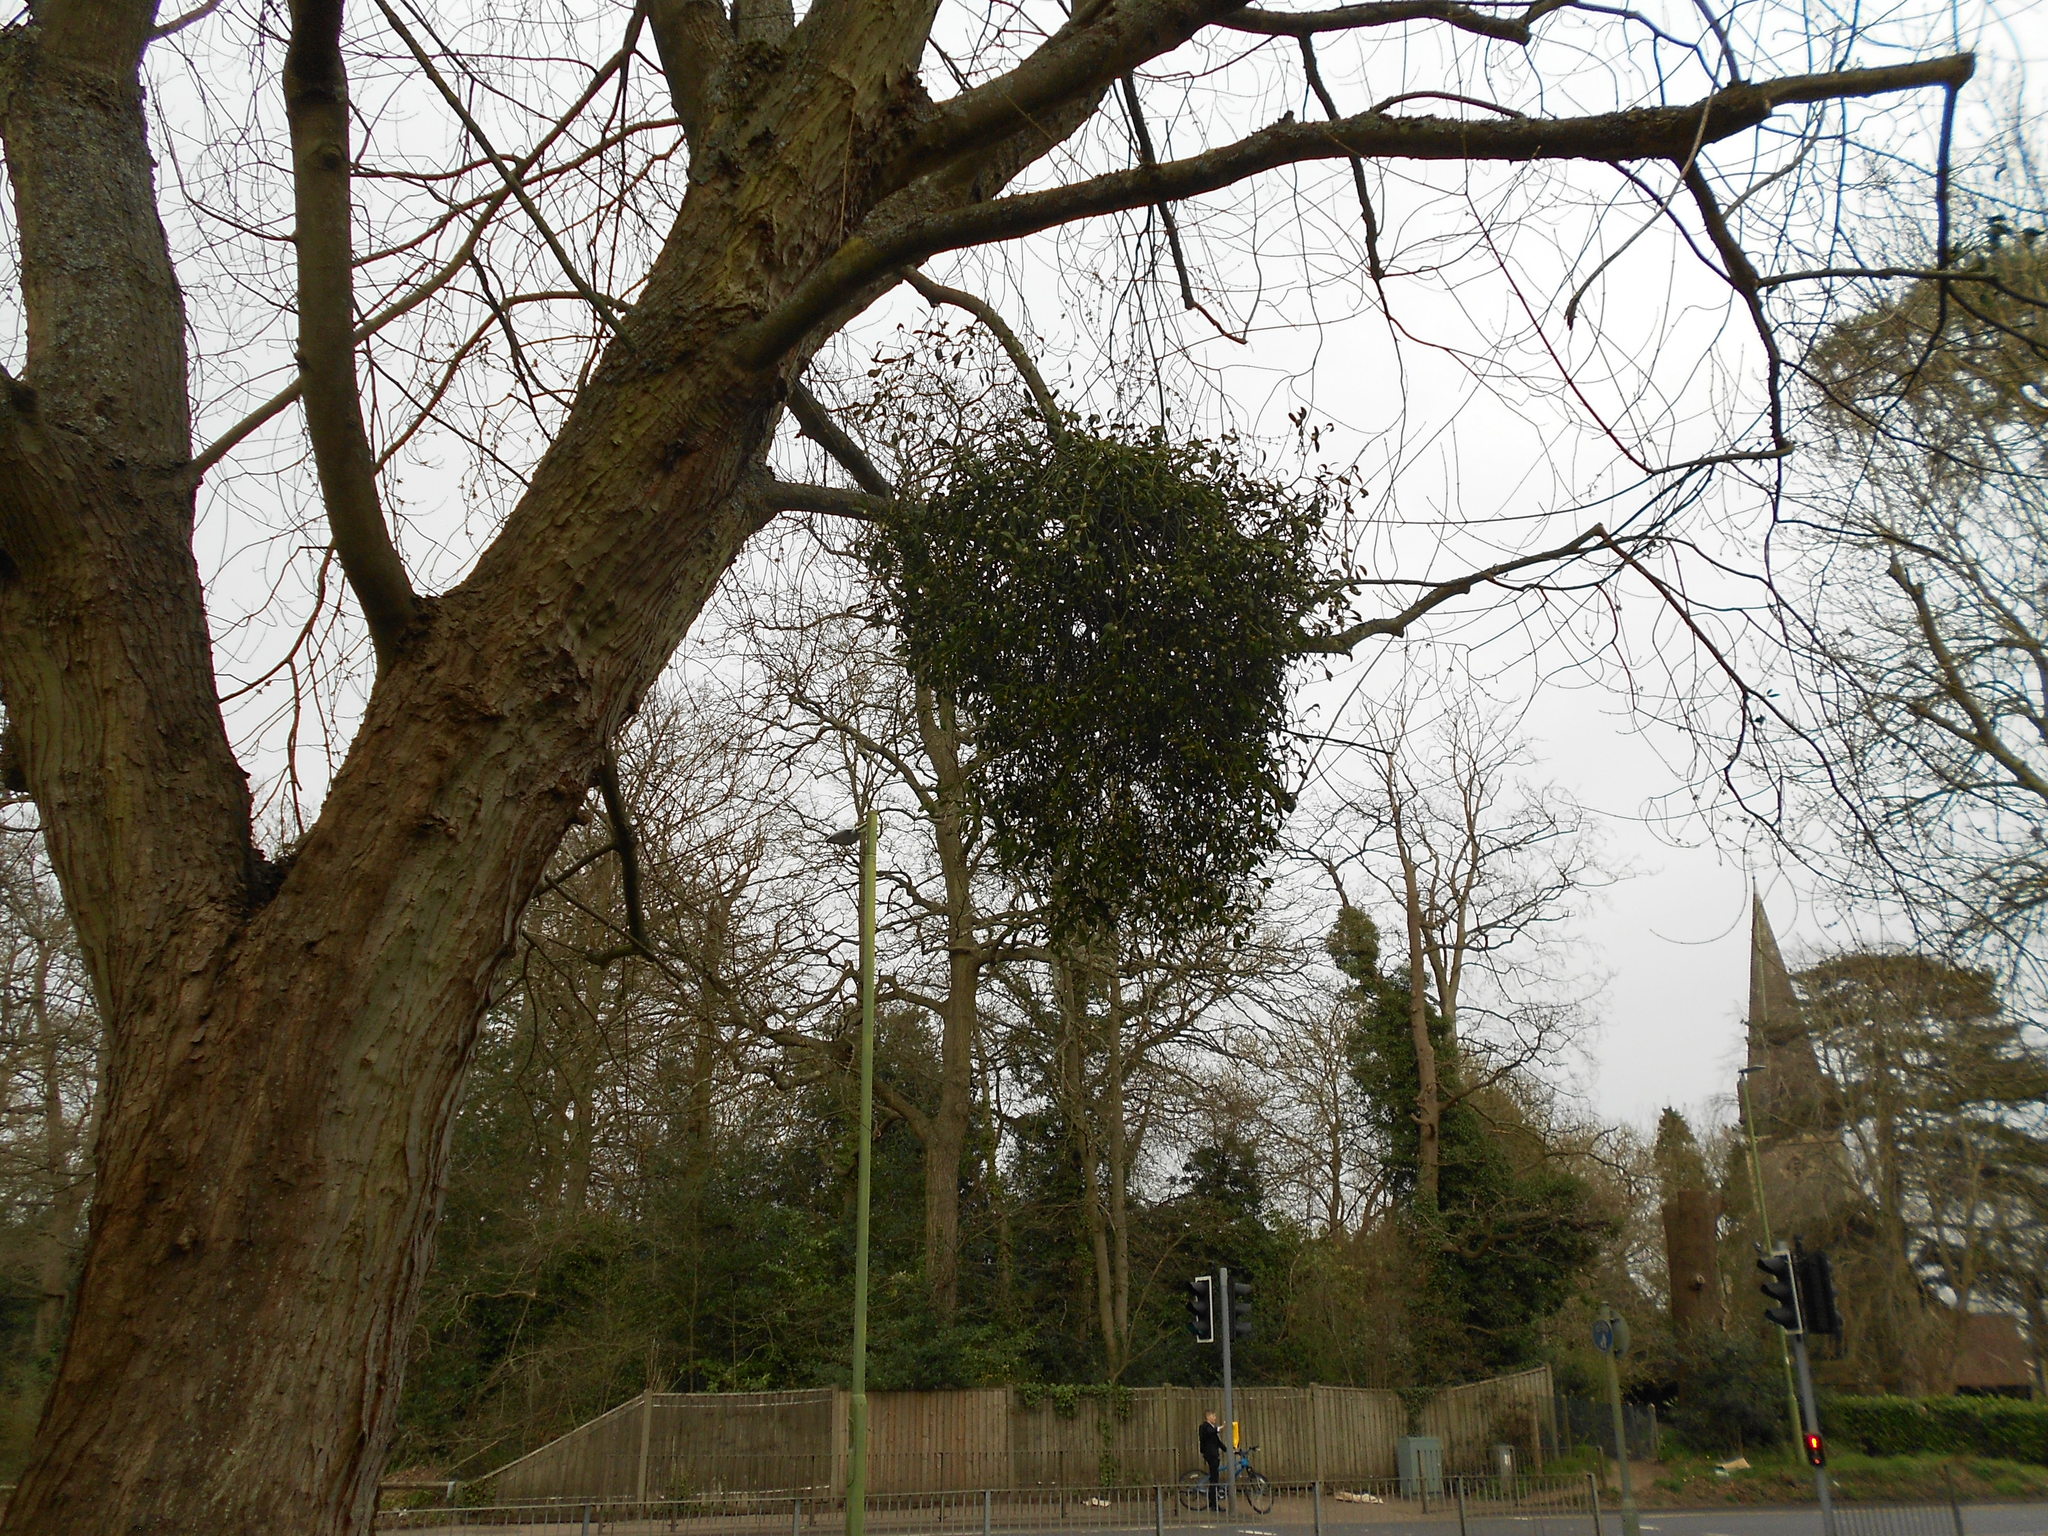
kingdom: Plantae
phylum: Tracheophyta
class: Magnoliopsida
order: Santalales
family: Viscaceae
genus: Viscum
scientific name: Viscum album
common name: Mistletoe
